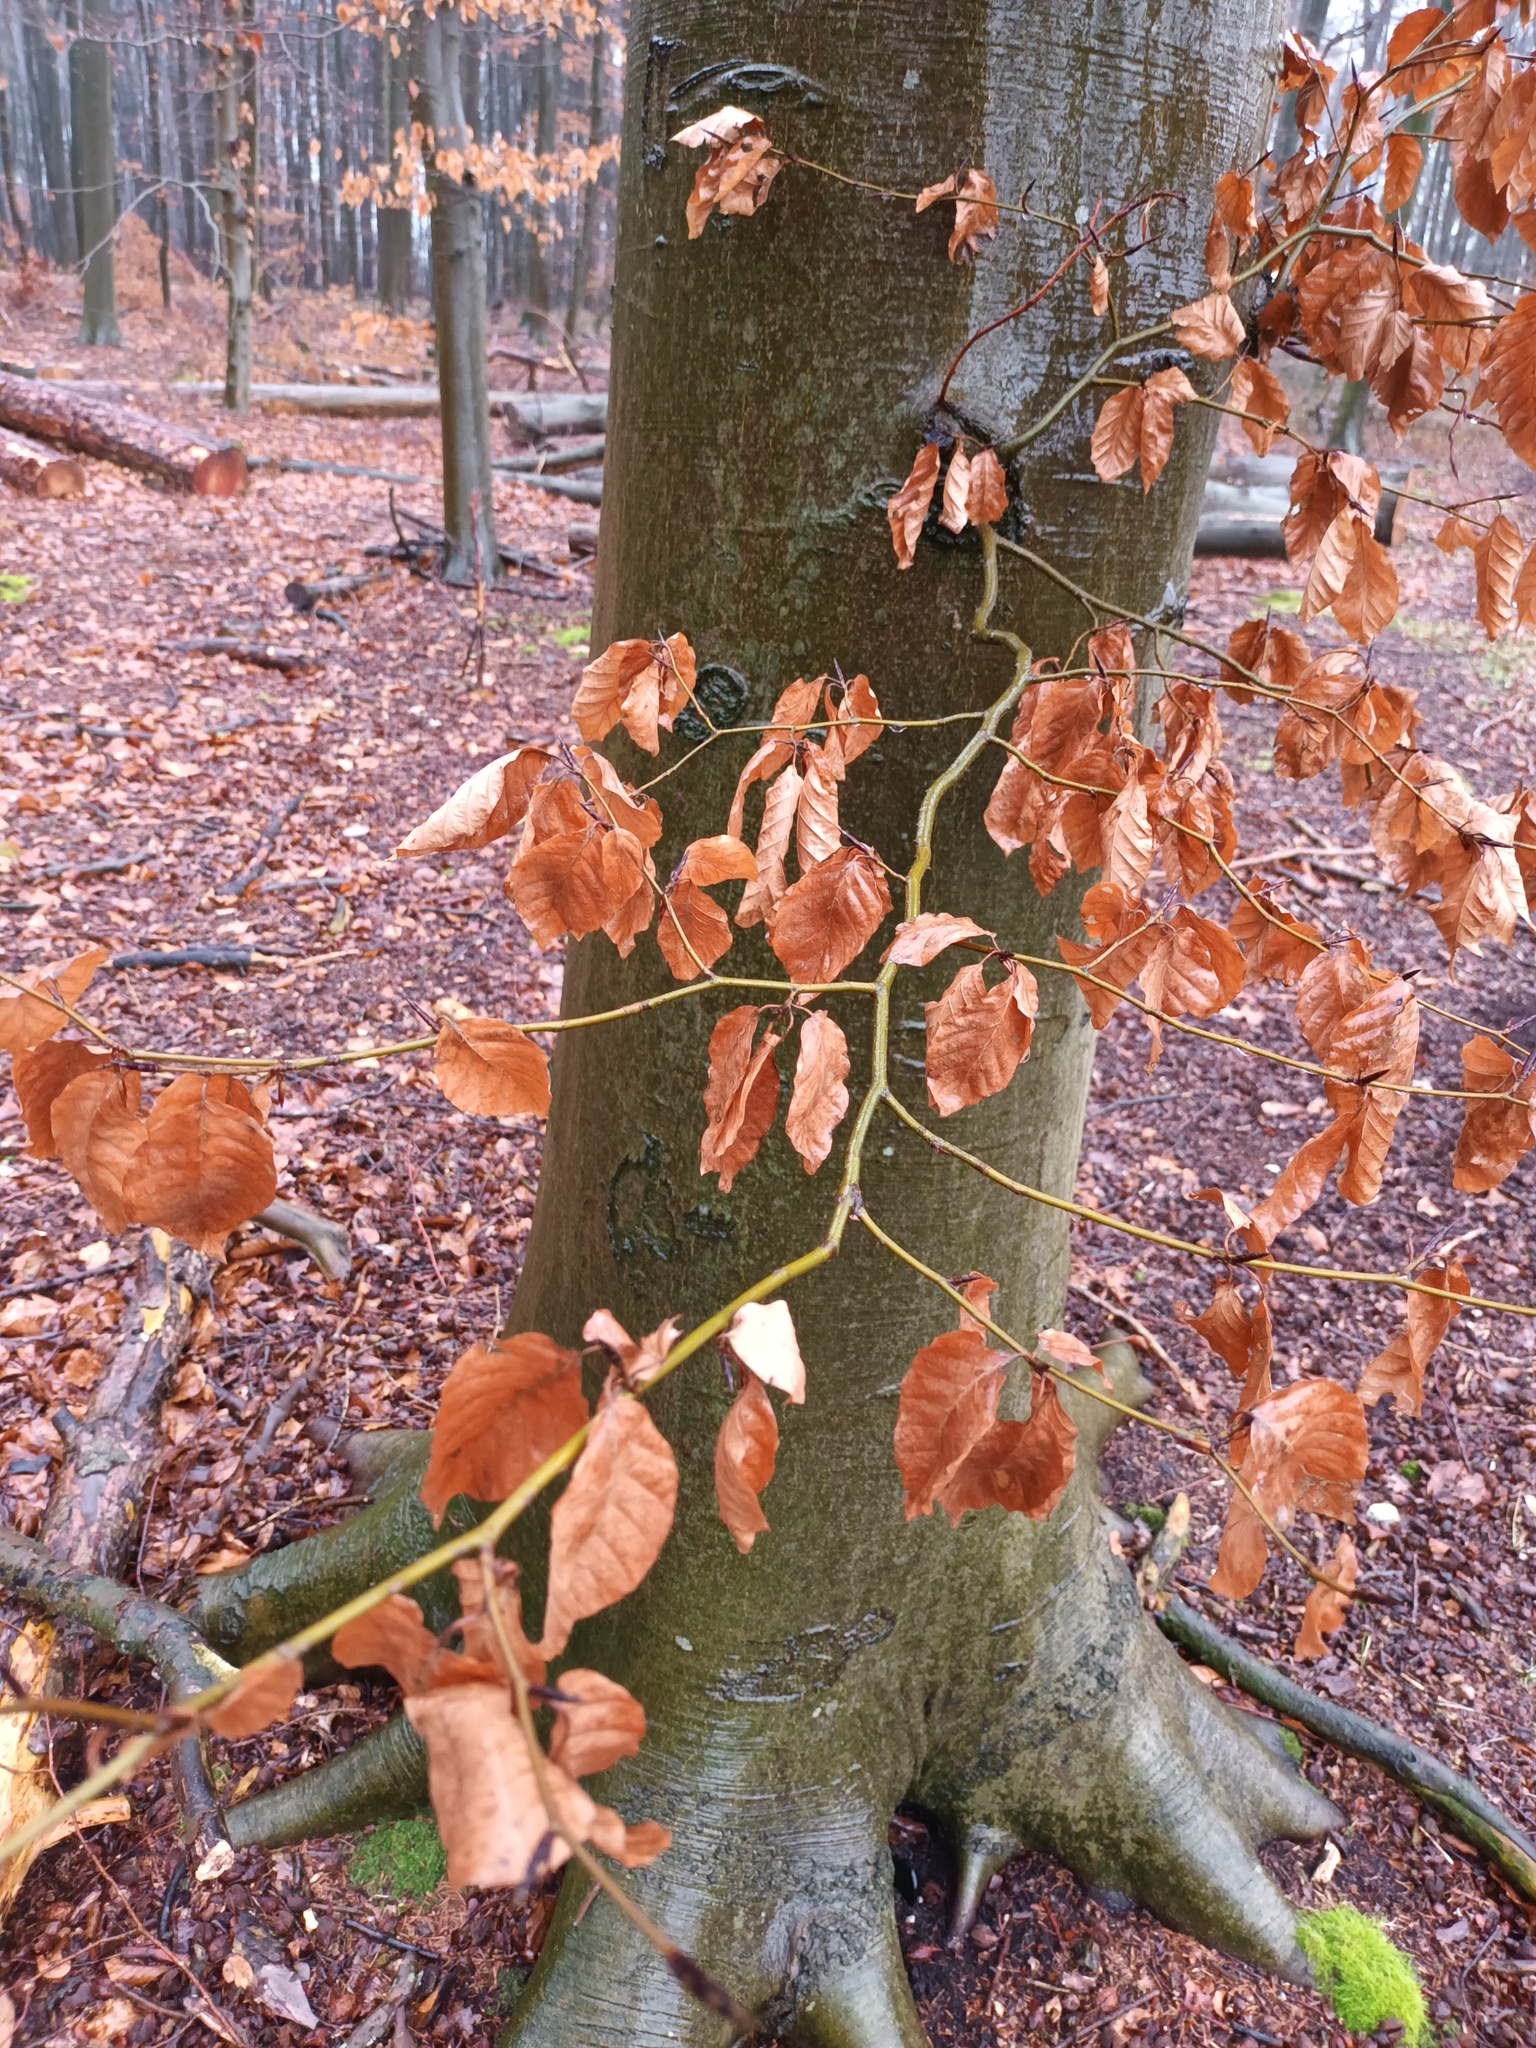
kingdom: Plantae
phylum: Tracheophyta
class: Magnoliopsida
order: Fagales
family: Fagaceae
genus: Fagus
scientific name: Fagus sylvatica
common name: Beech
